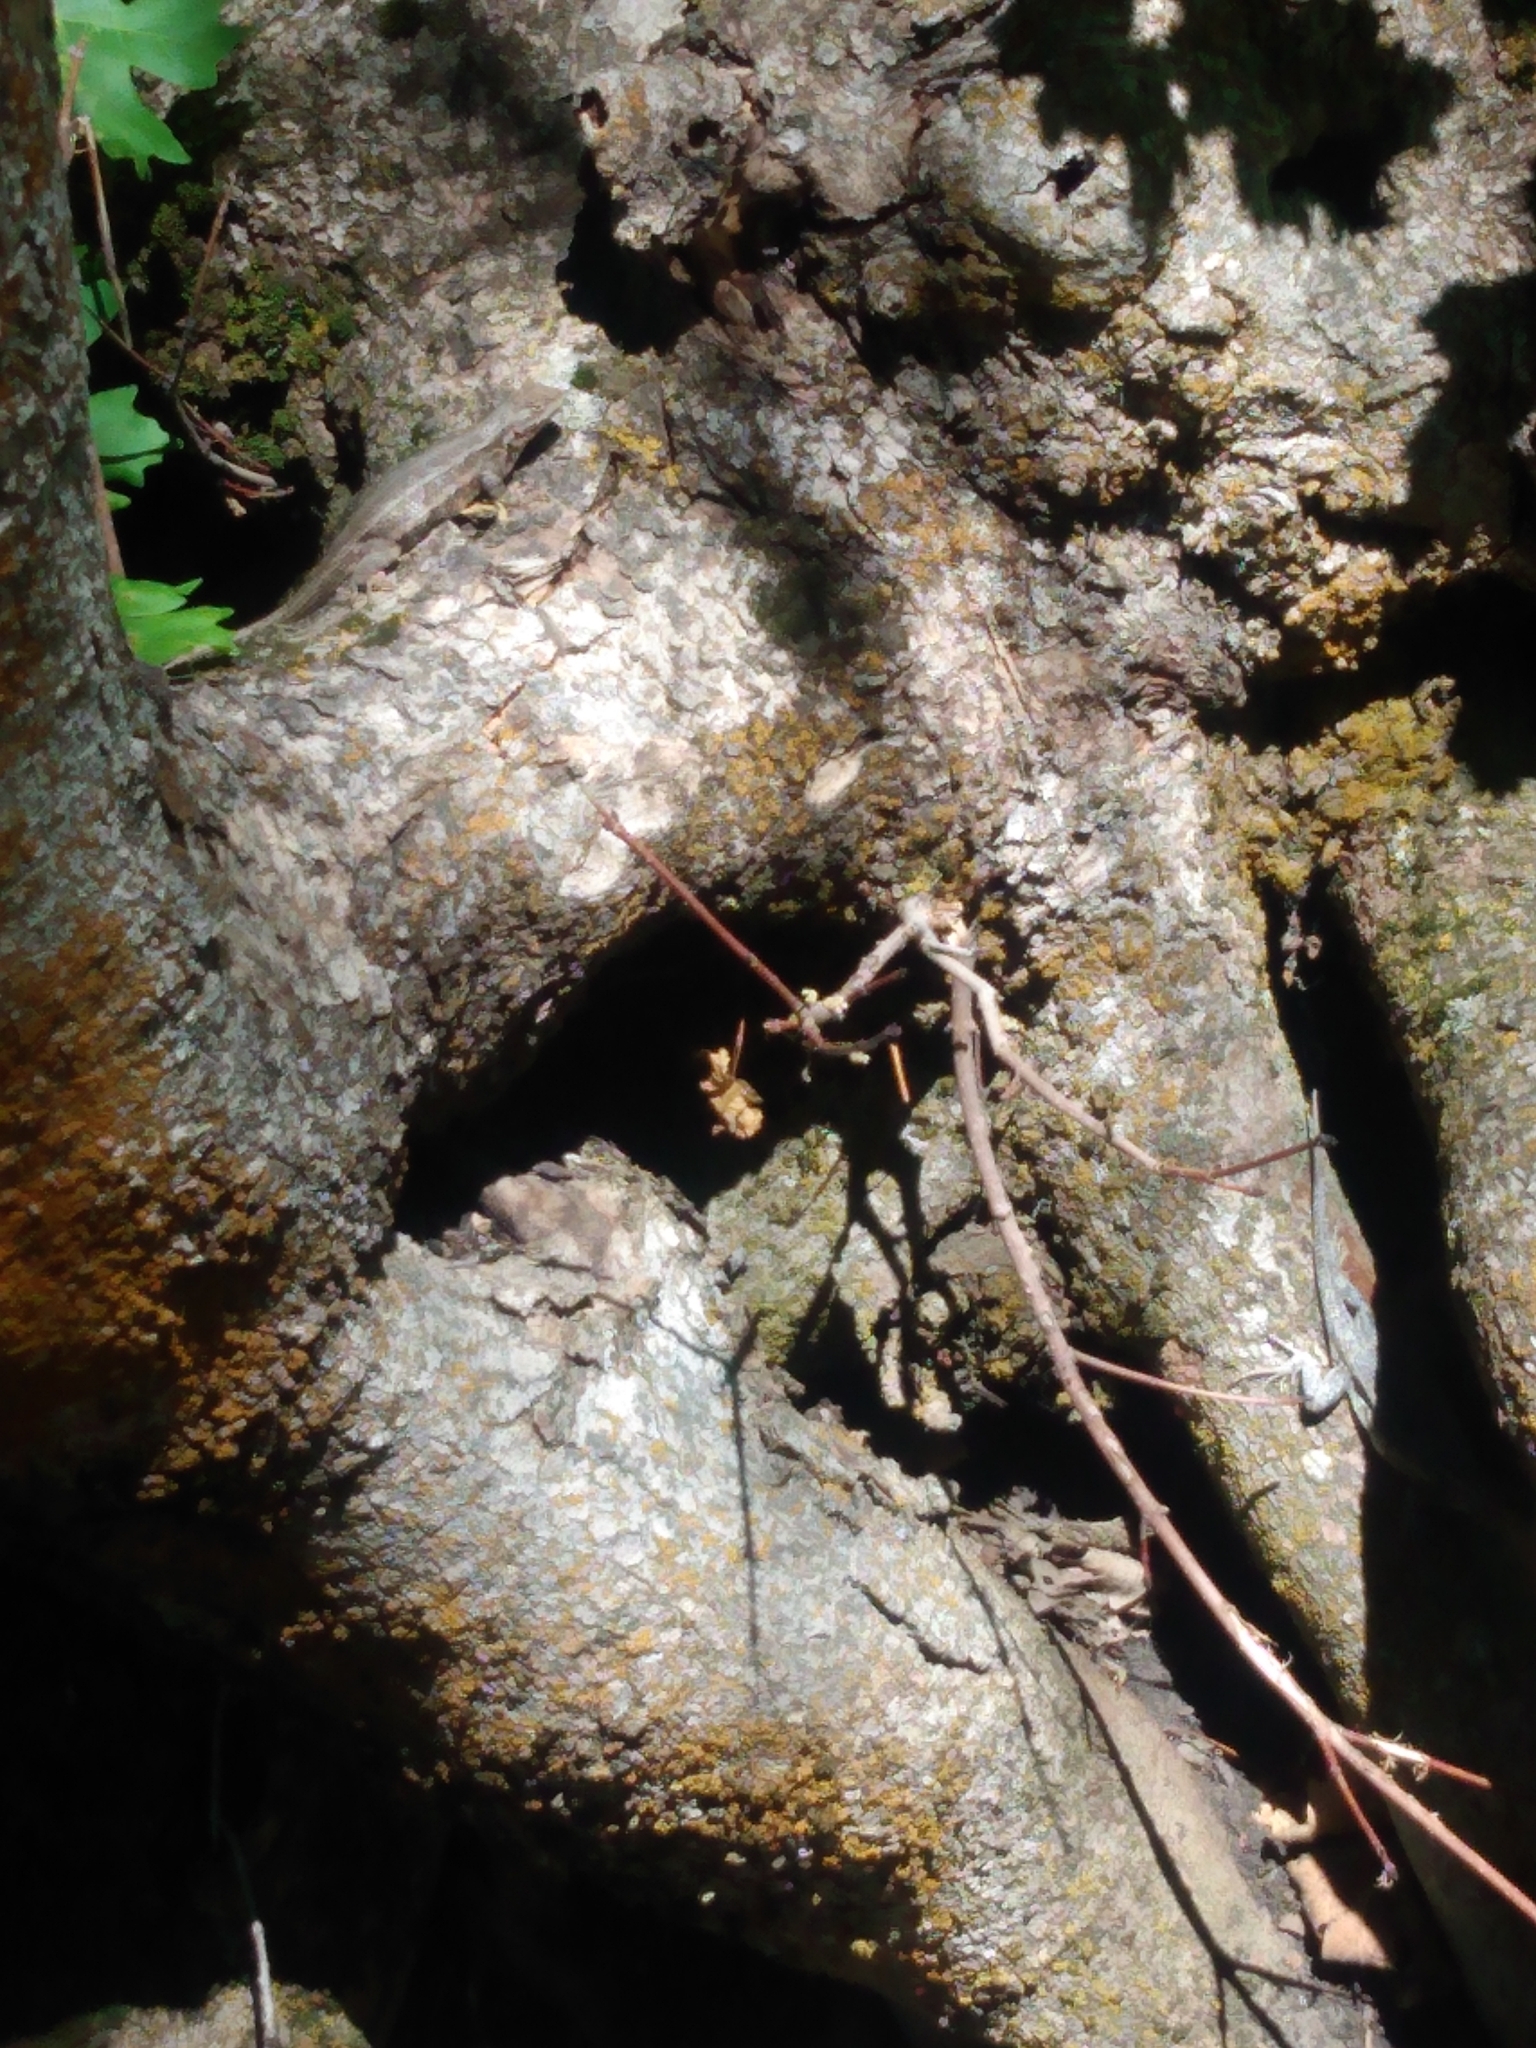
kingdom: Animalia
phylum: Chordata
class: Squamata
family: Phrynosomatidae
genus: Sceloporus
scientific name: Sceloporus graciosus
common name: Sagebrush lizard
